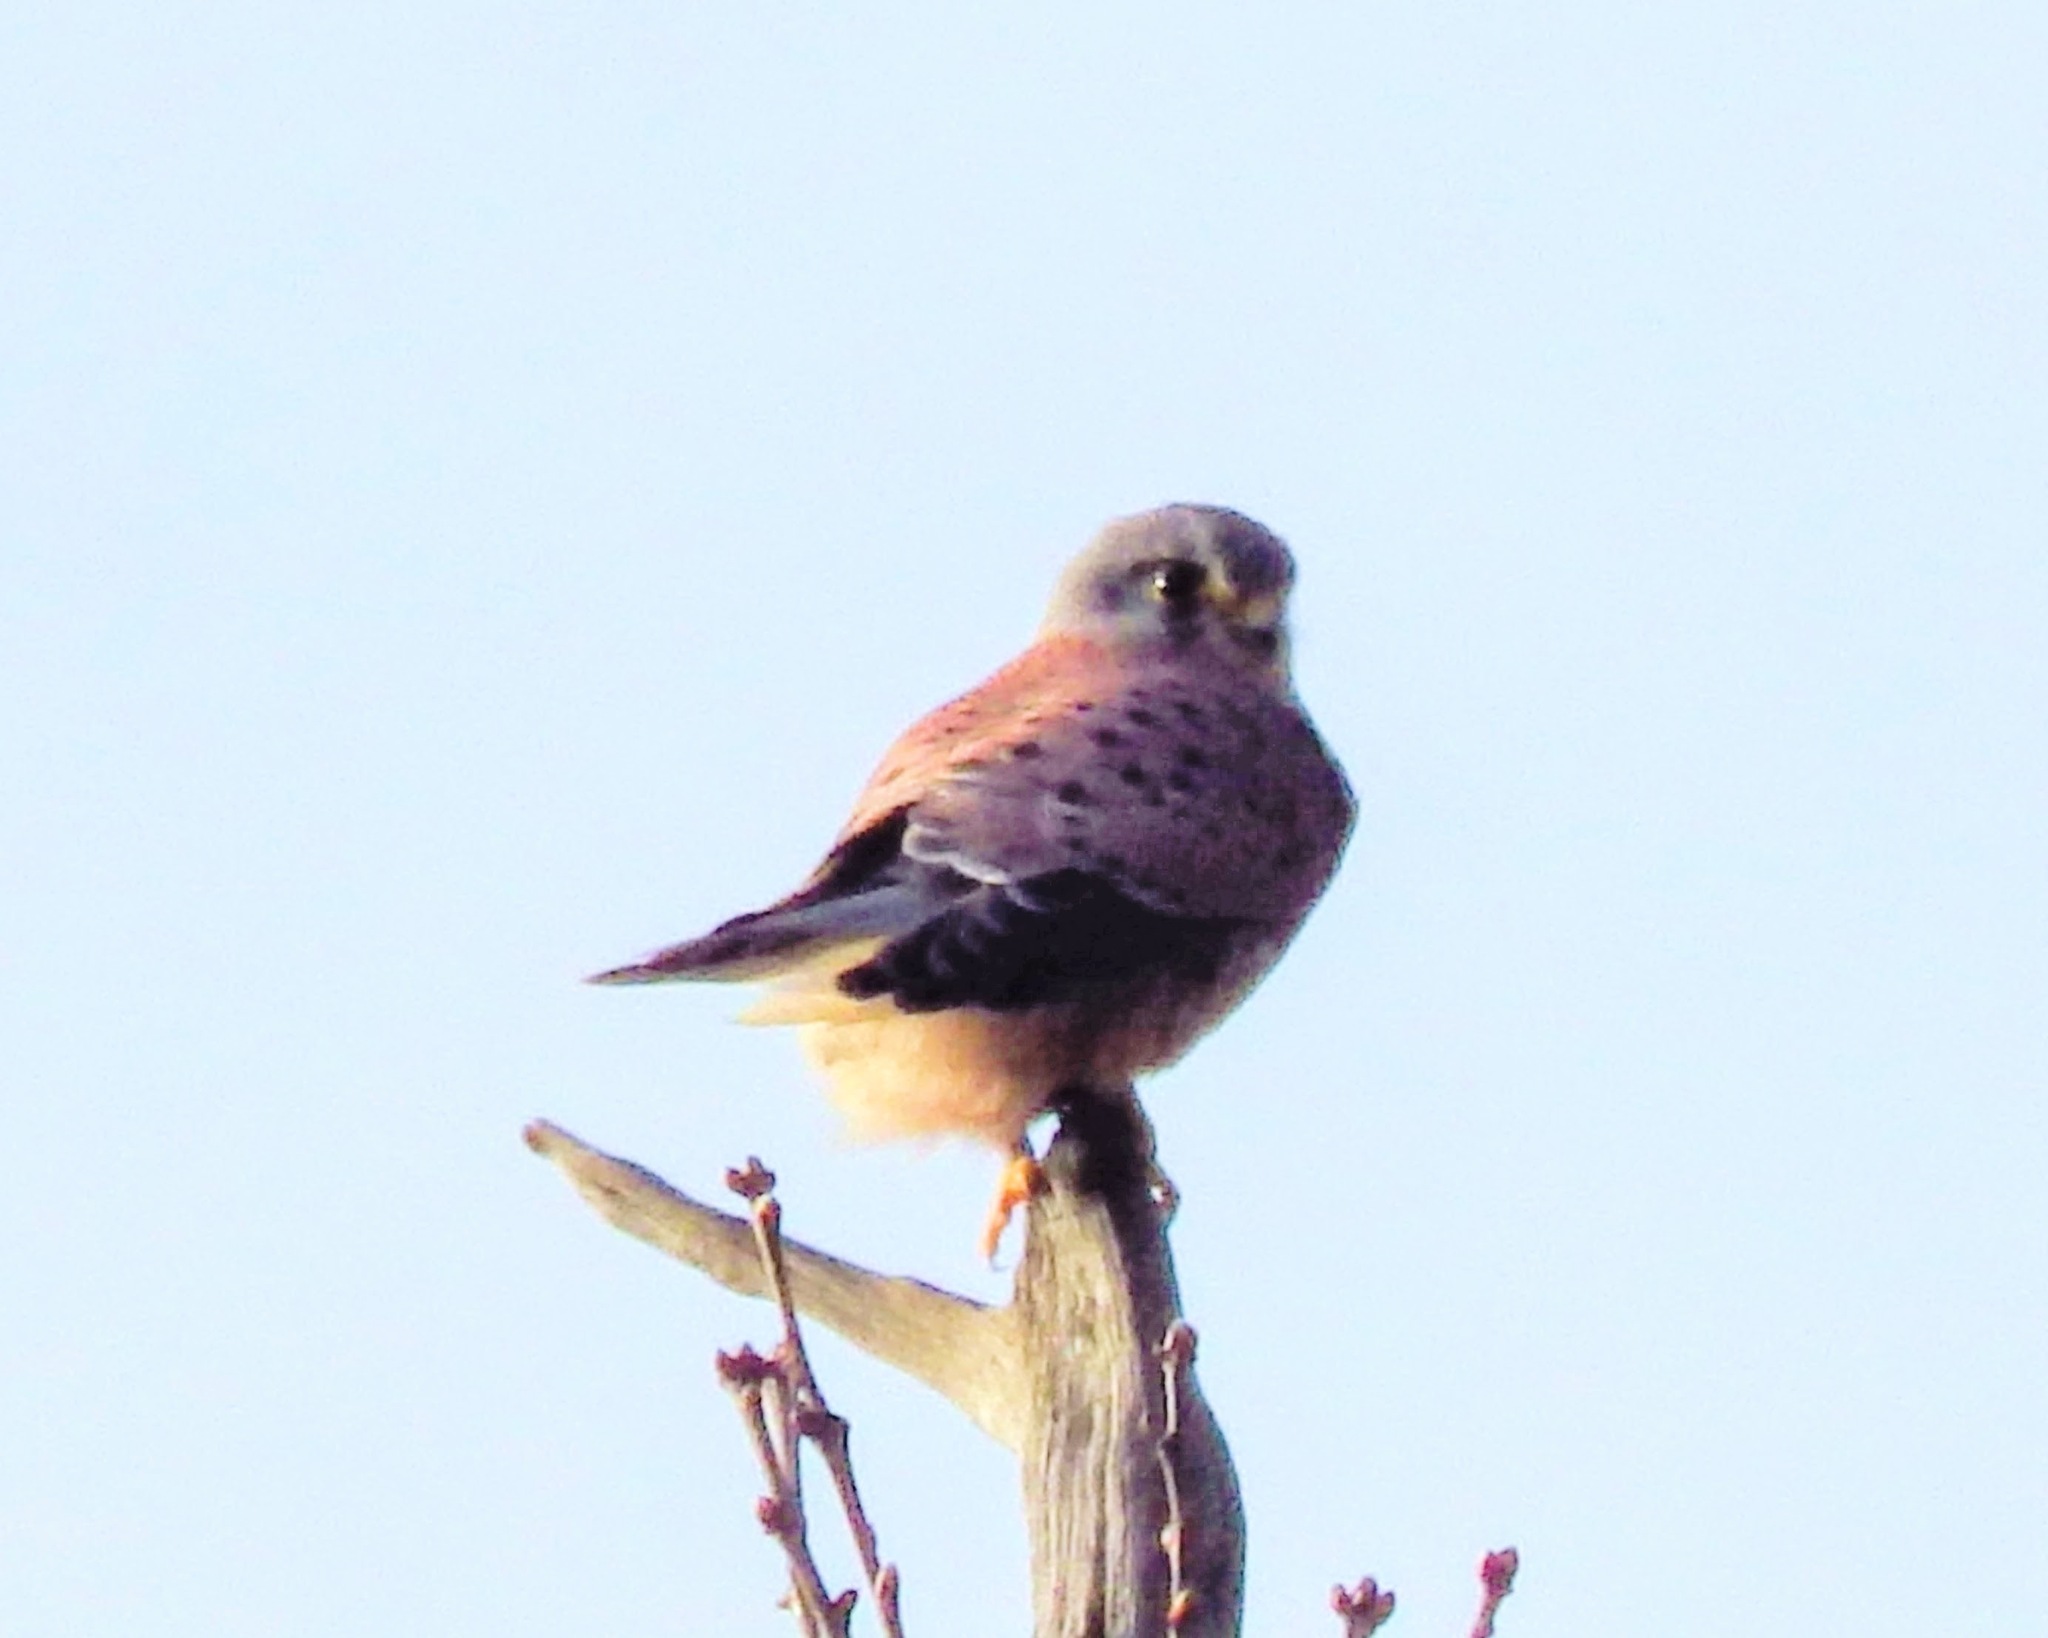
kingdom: Animalia
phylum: Chordata
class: Aves
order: Falconiformes
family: Falconidae
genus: Falco
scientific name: Falco tinnunculus
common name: Common kestrel
